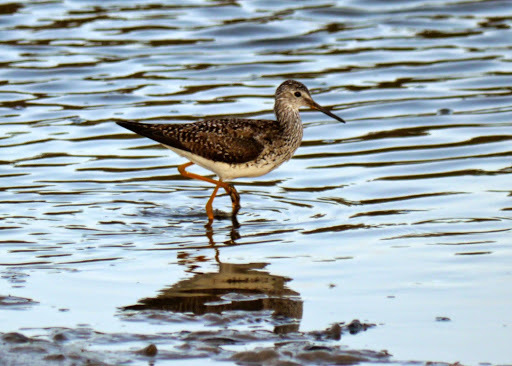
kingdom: Animalia
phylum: Chordata
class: Aves
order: Charadriiformes
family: Scolopacidae
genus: Tringa
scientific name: Tringa flavipes
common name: Lesser yellowlegs
